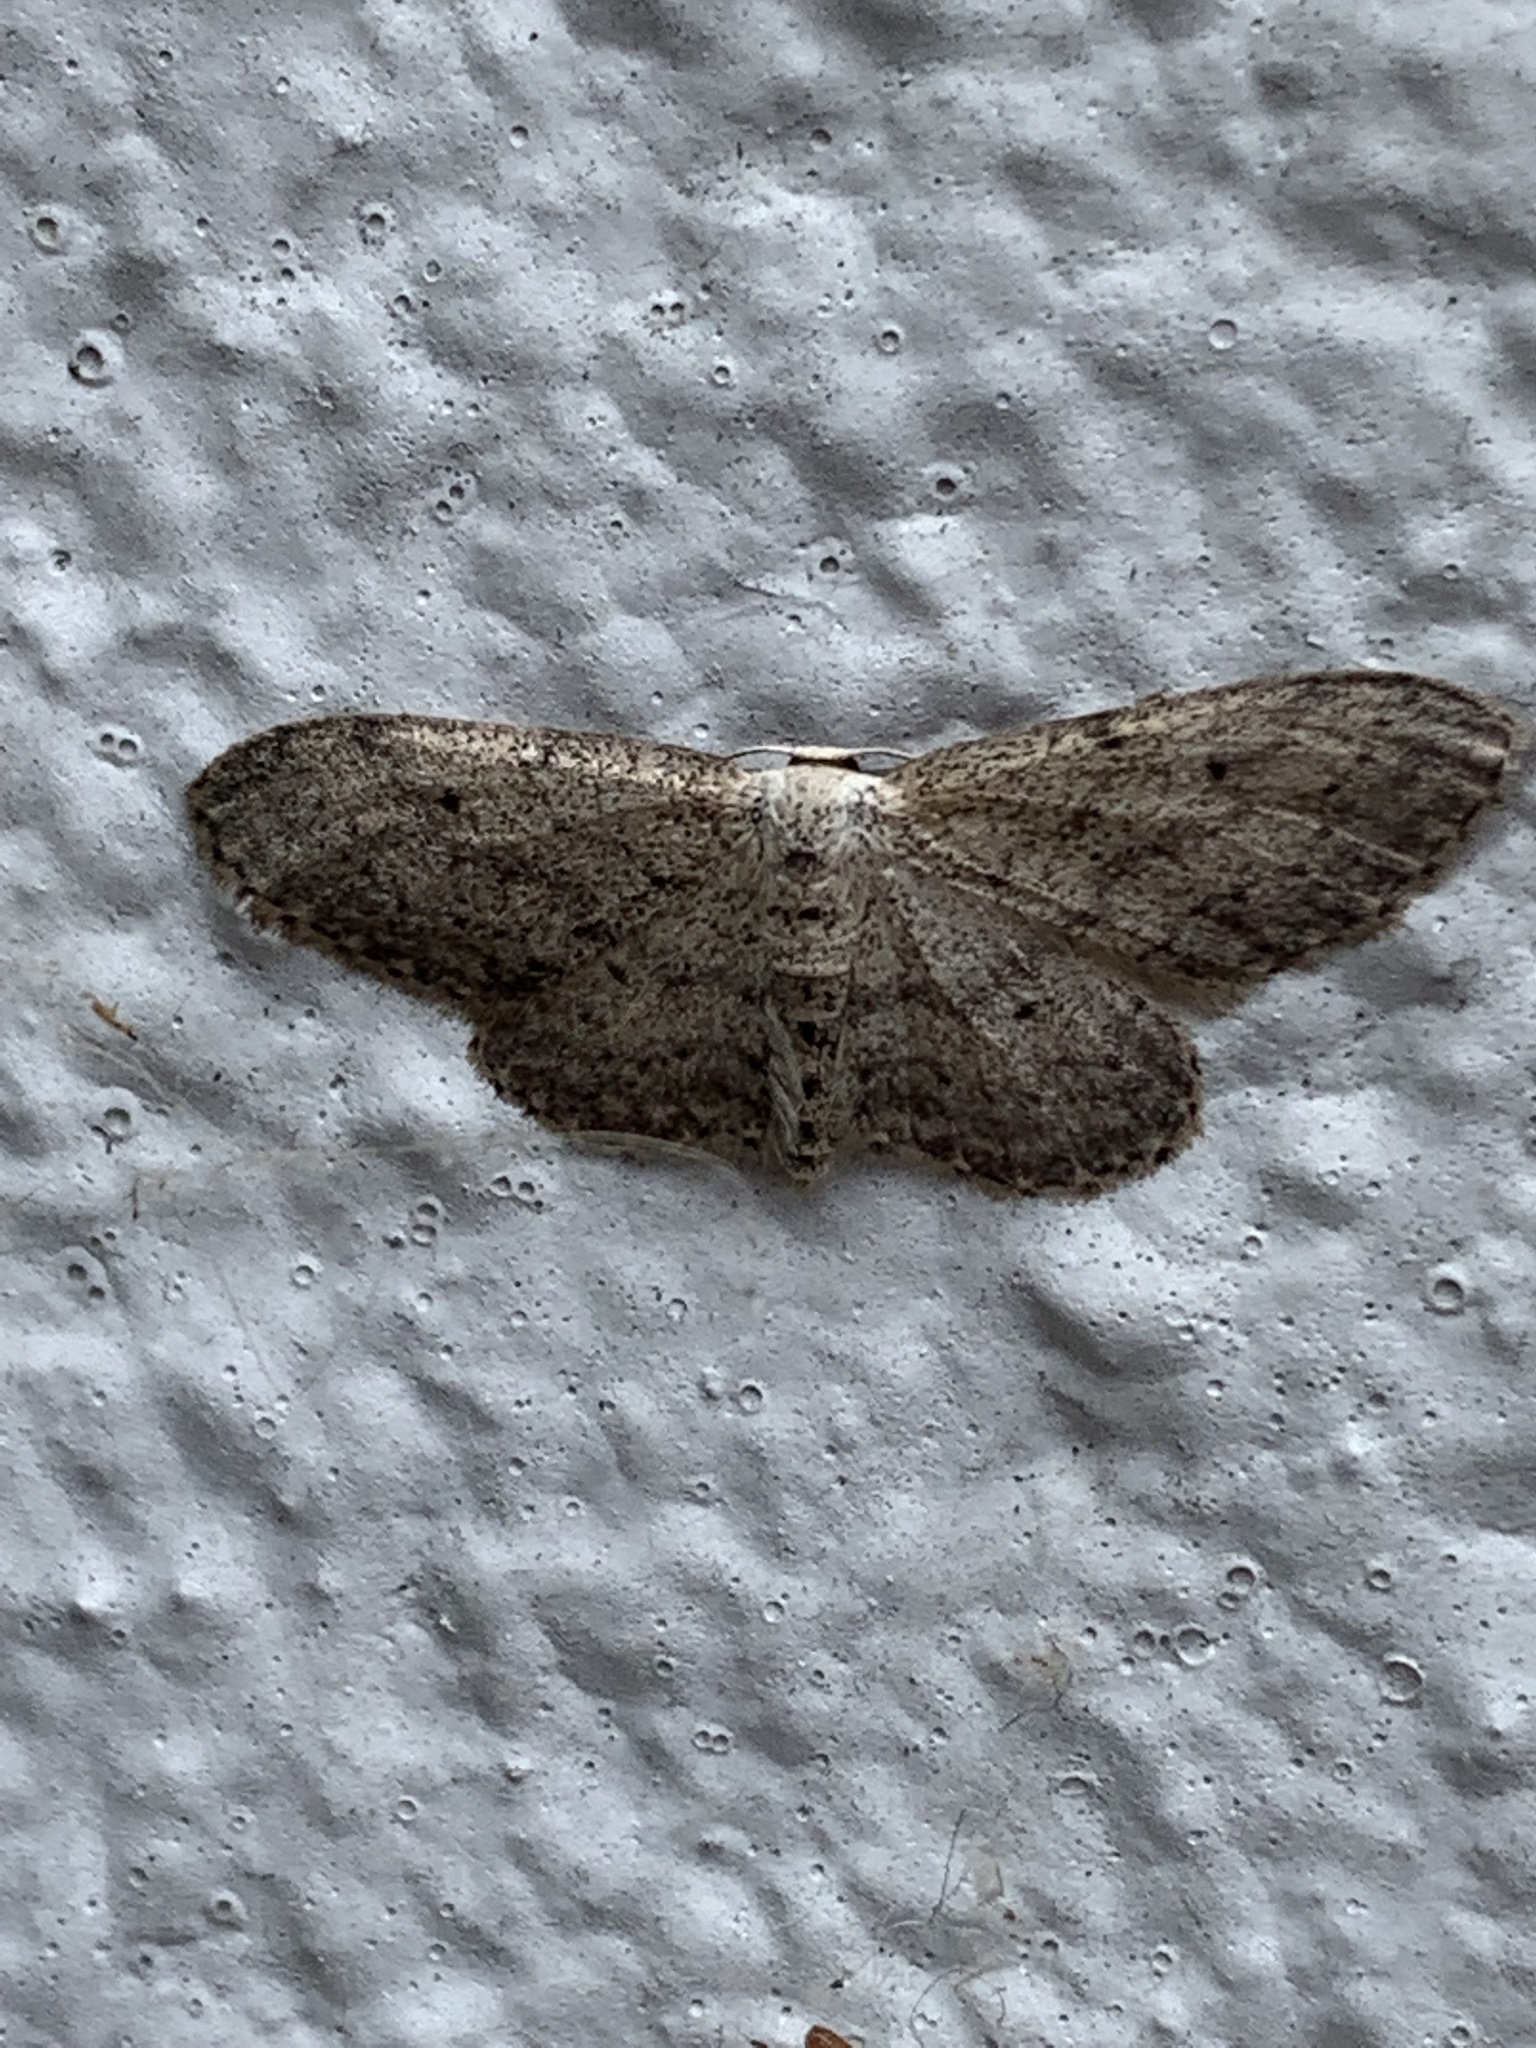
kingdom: Animalia
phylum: Arthropoda
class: Insecta
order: Lepidoptera
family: Geometridae
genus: Idaea
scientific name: Idaea seriata
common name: Small dusty wave
